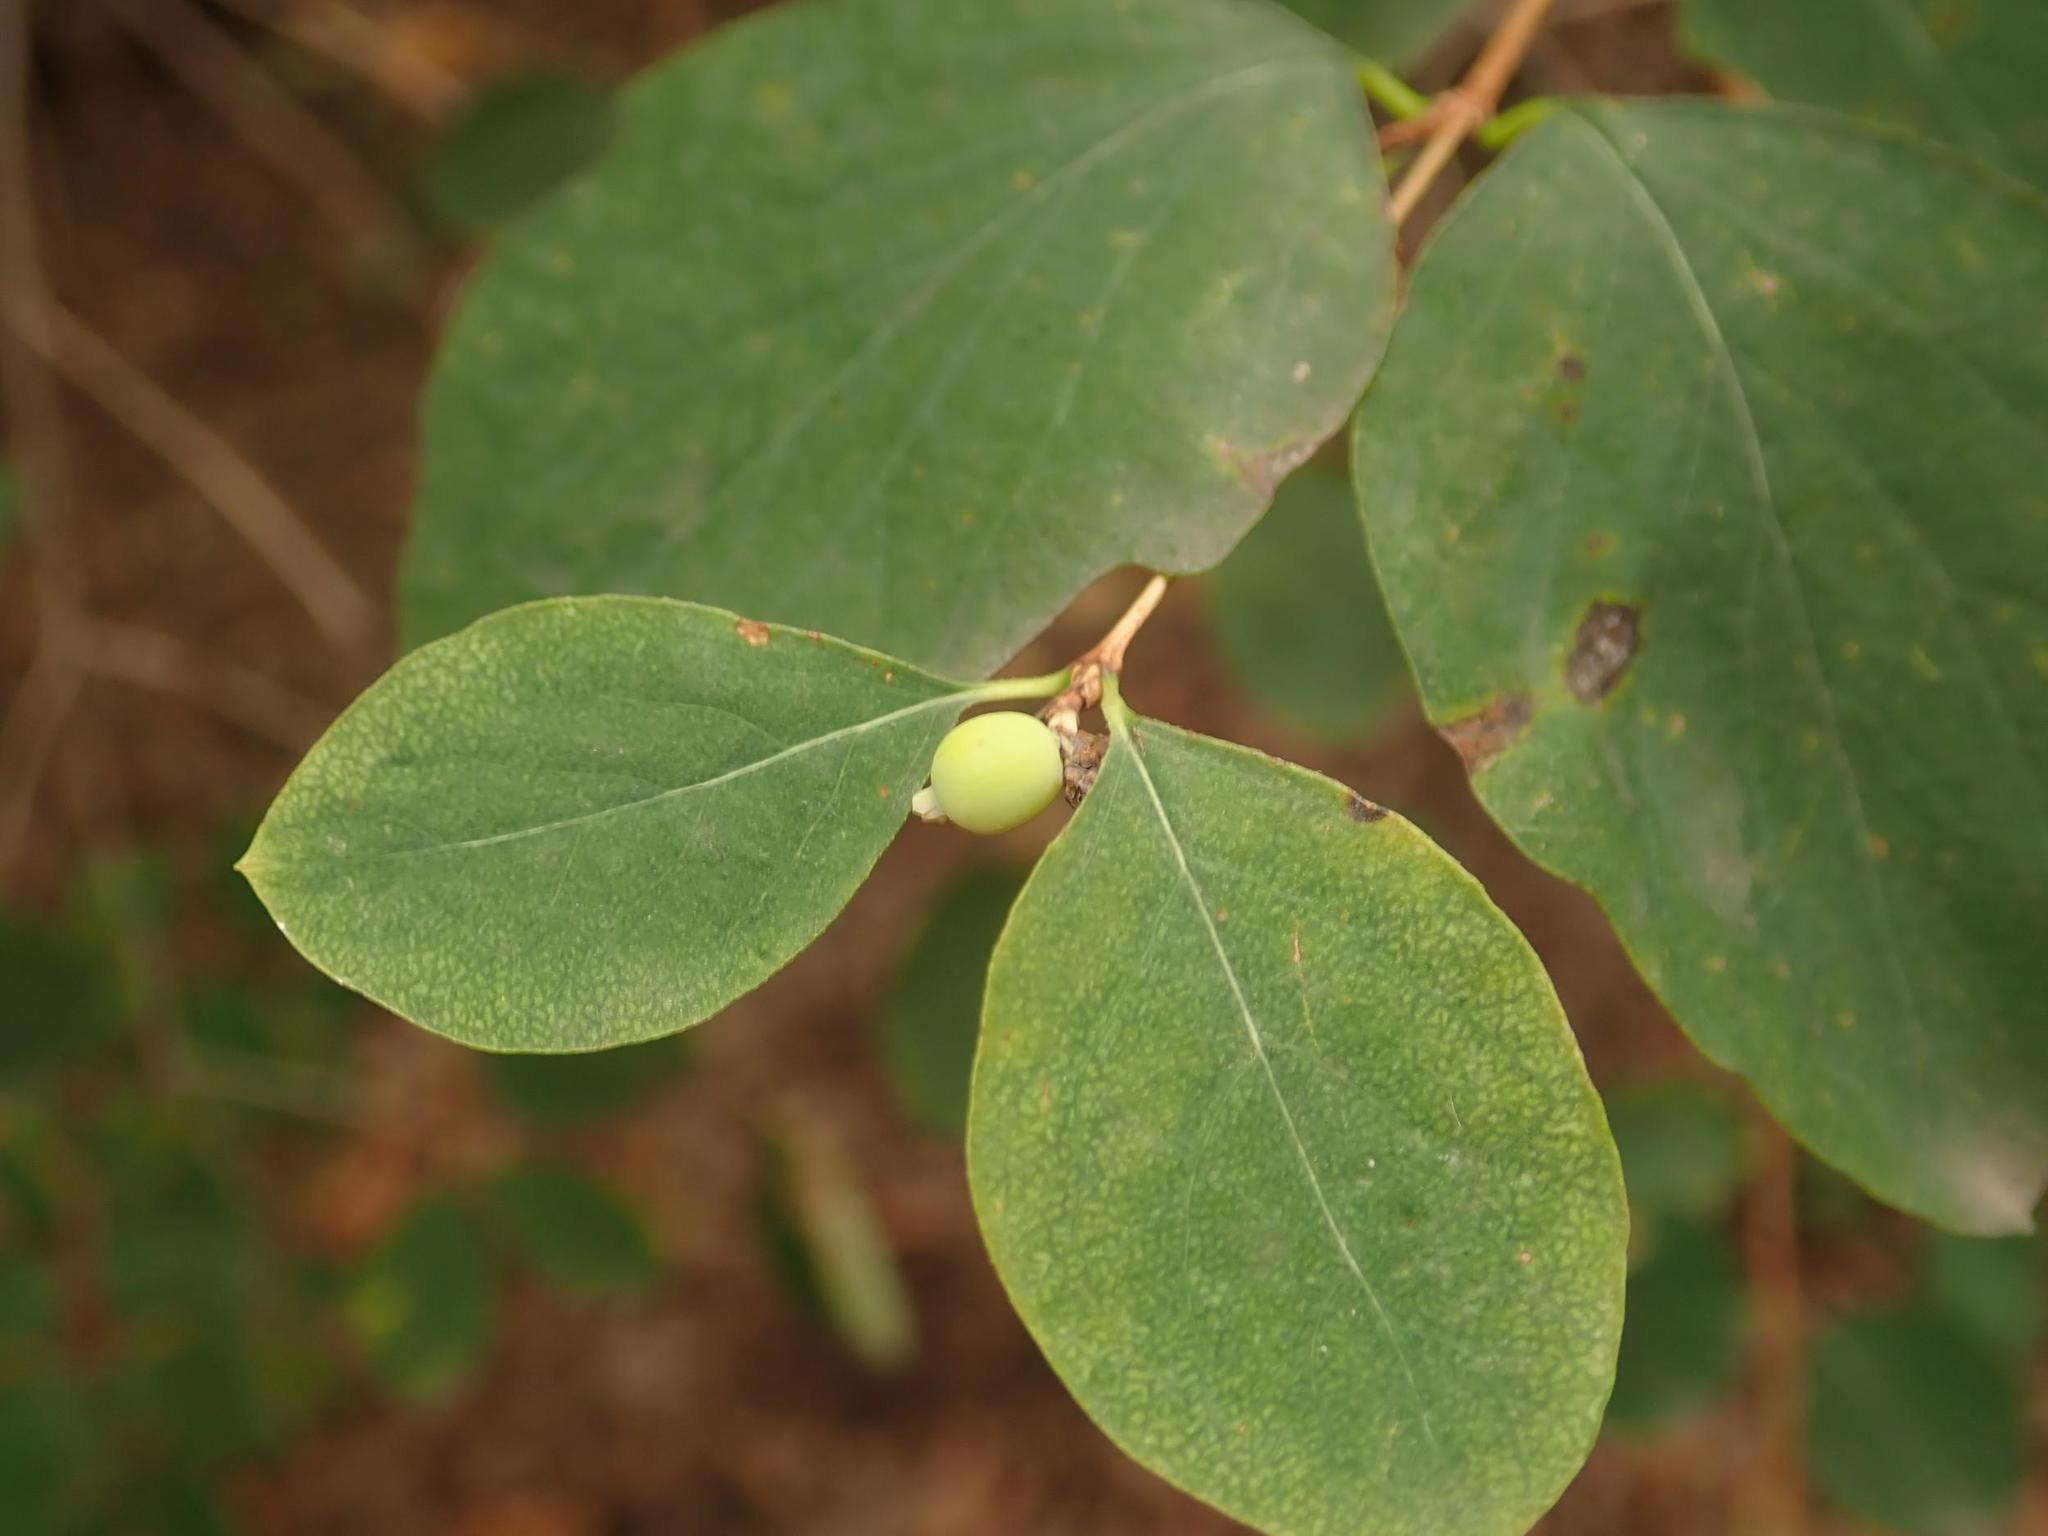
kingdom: Plantae
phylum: Tracheophyta
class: Magnoliopsida
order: Dipsacales
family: Caprifoliaceae
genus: Symphoricarpos
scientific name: Symphoricarpos albus
